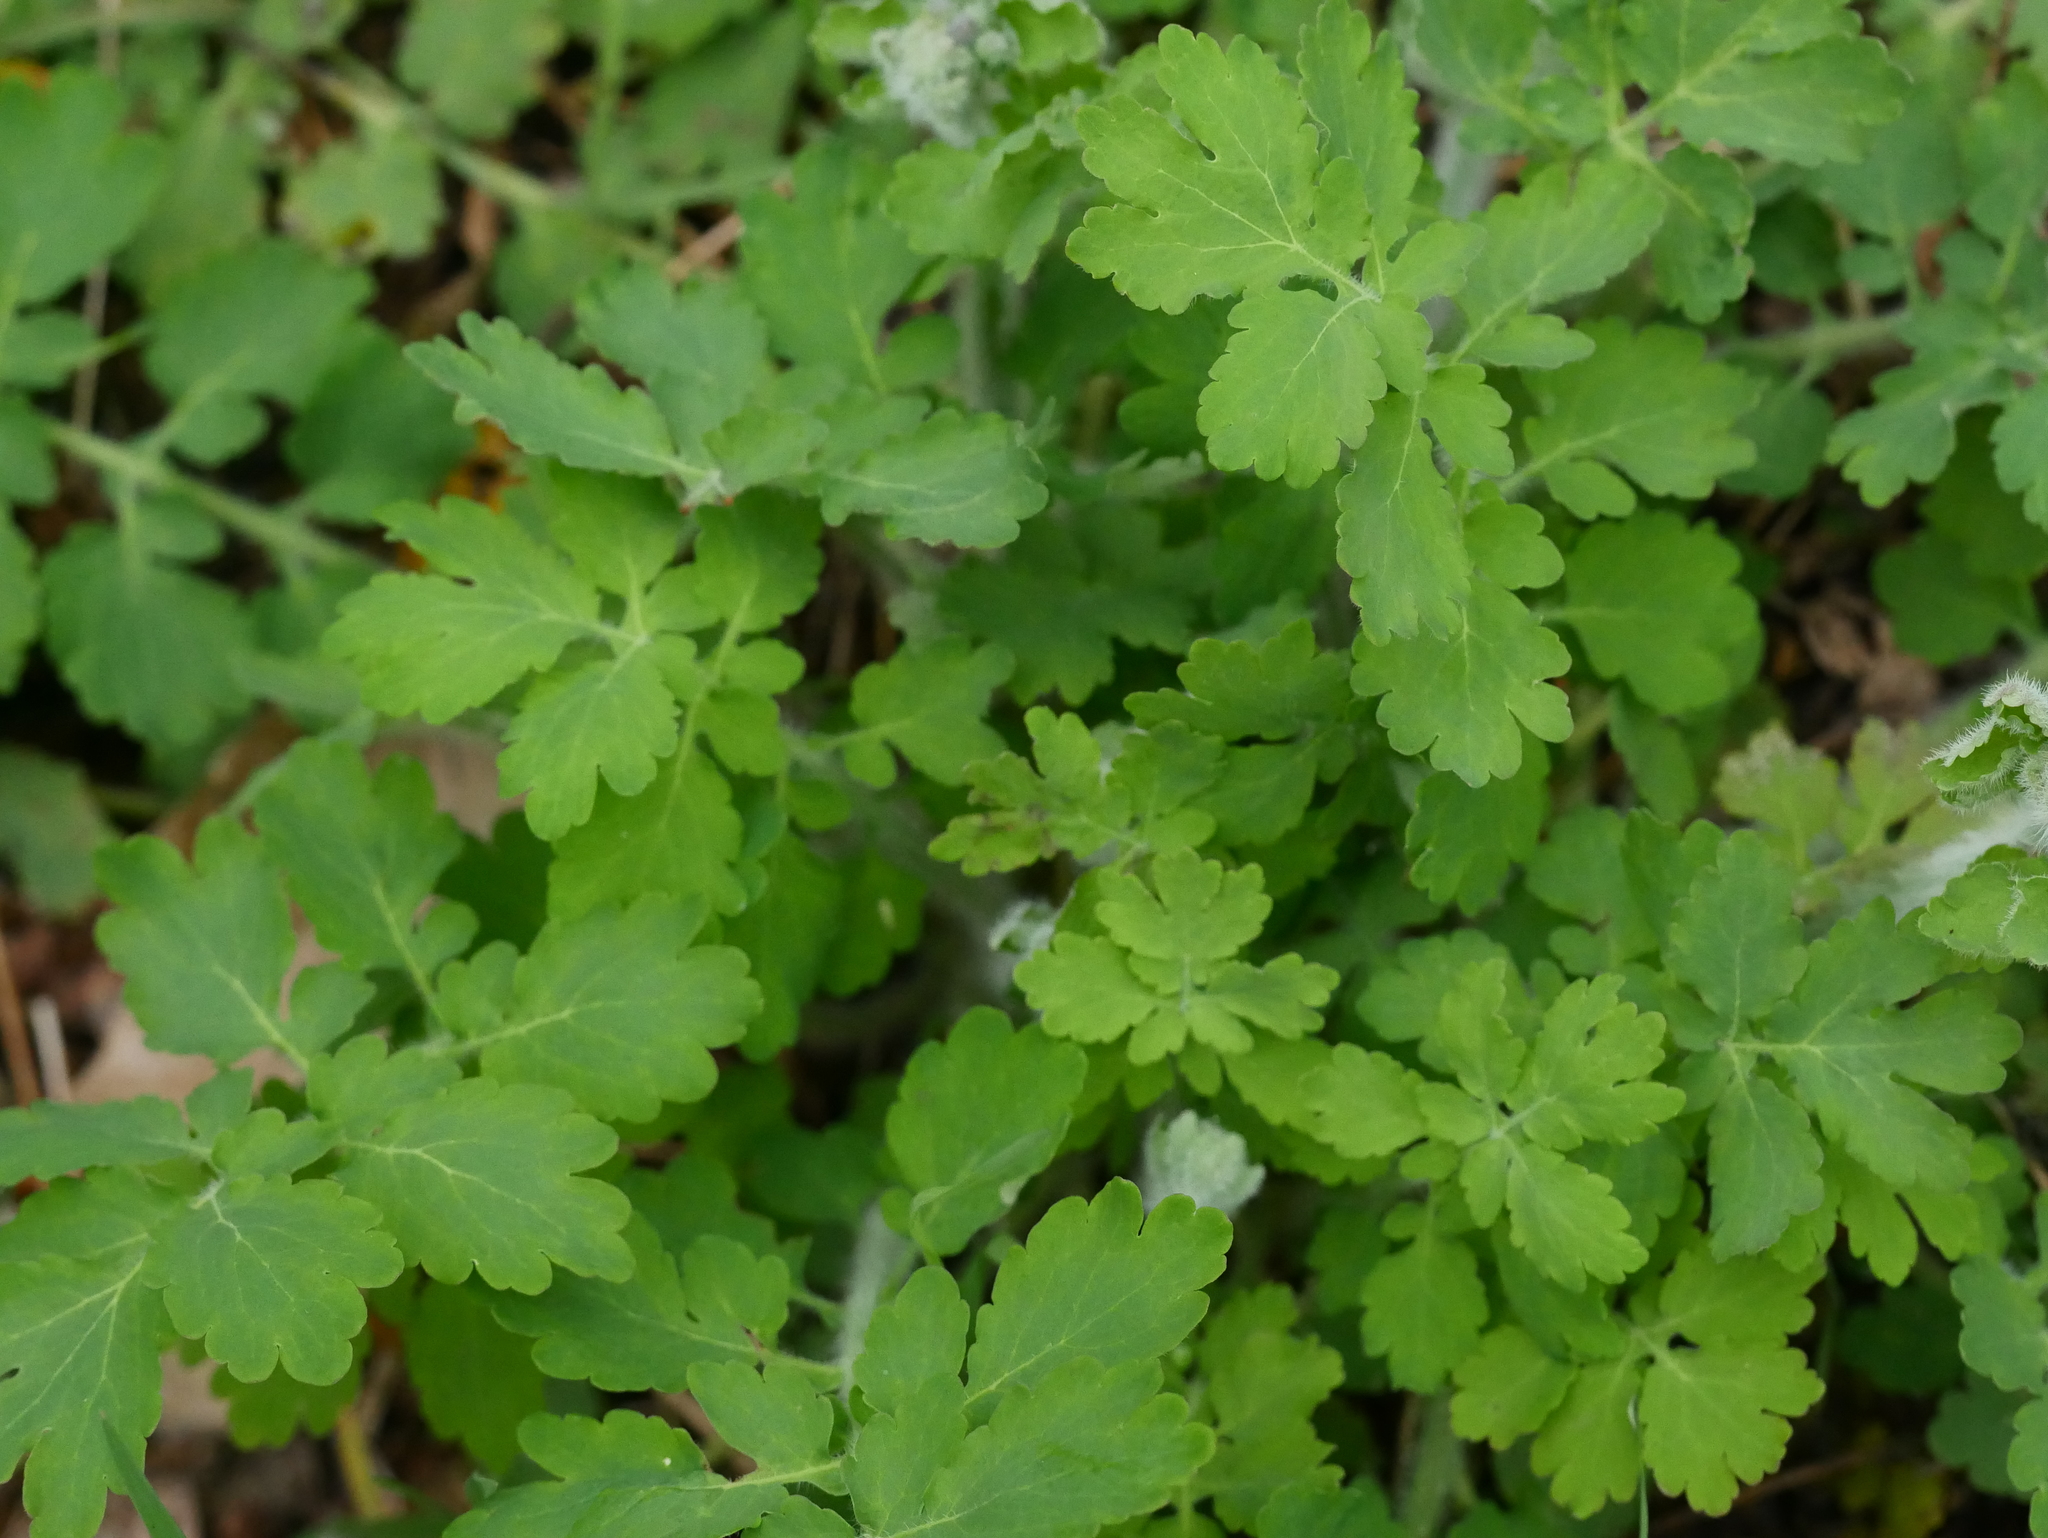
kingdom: Plantae
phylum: Tracheophyta
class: Magnoliopsida
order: Ranunculales
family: Papaveraceae
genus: Chelidonium
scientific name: Chelidonium majus
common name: Greater celandine
